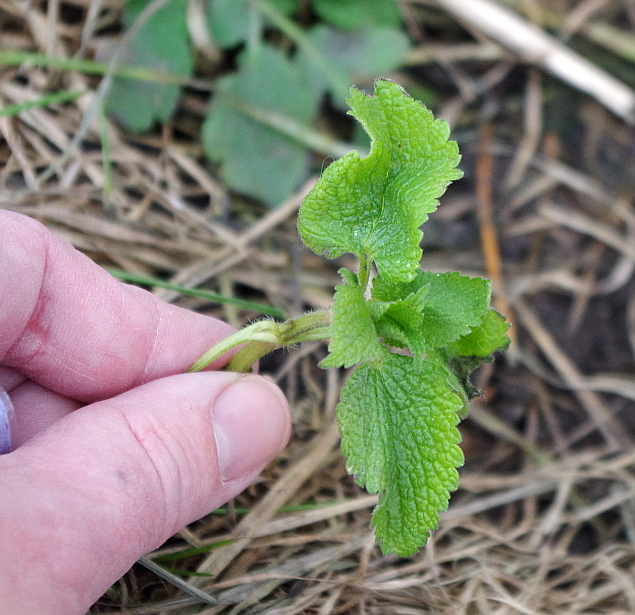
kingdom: Plantae
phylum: Tracheophyta
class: Magnoliopsida
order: Lamiales
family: Lamiaceae
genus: Lamium
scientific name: Lamium album
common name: White dead-nettle
